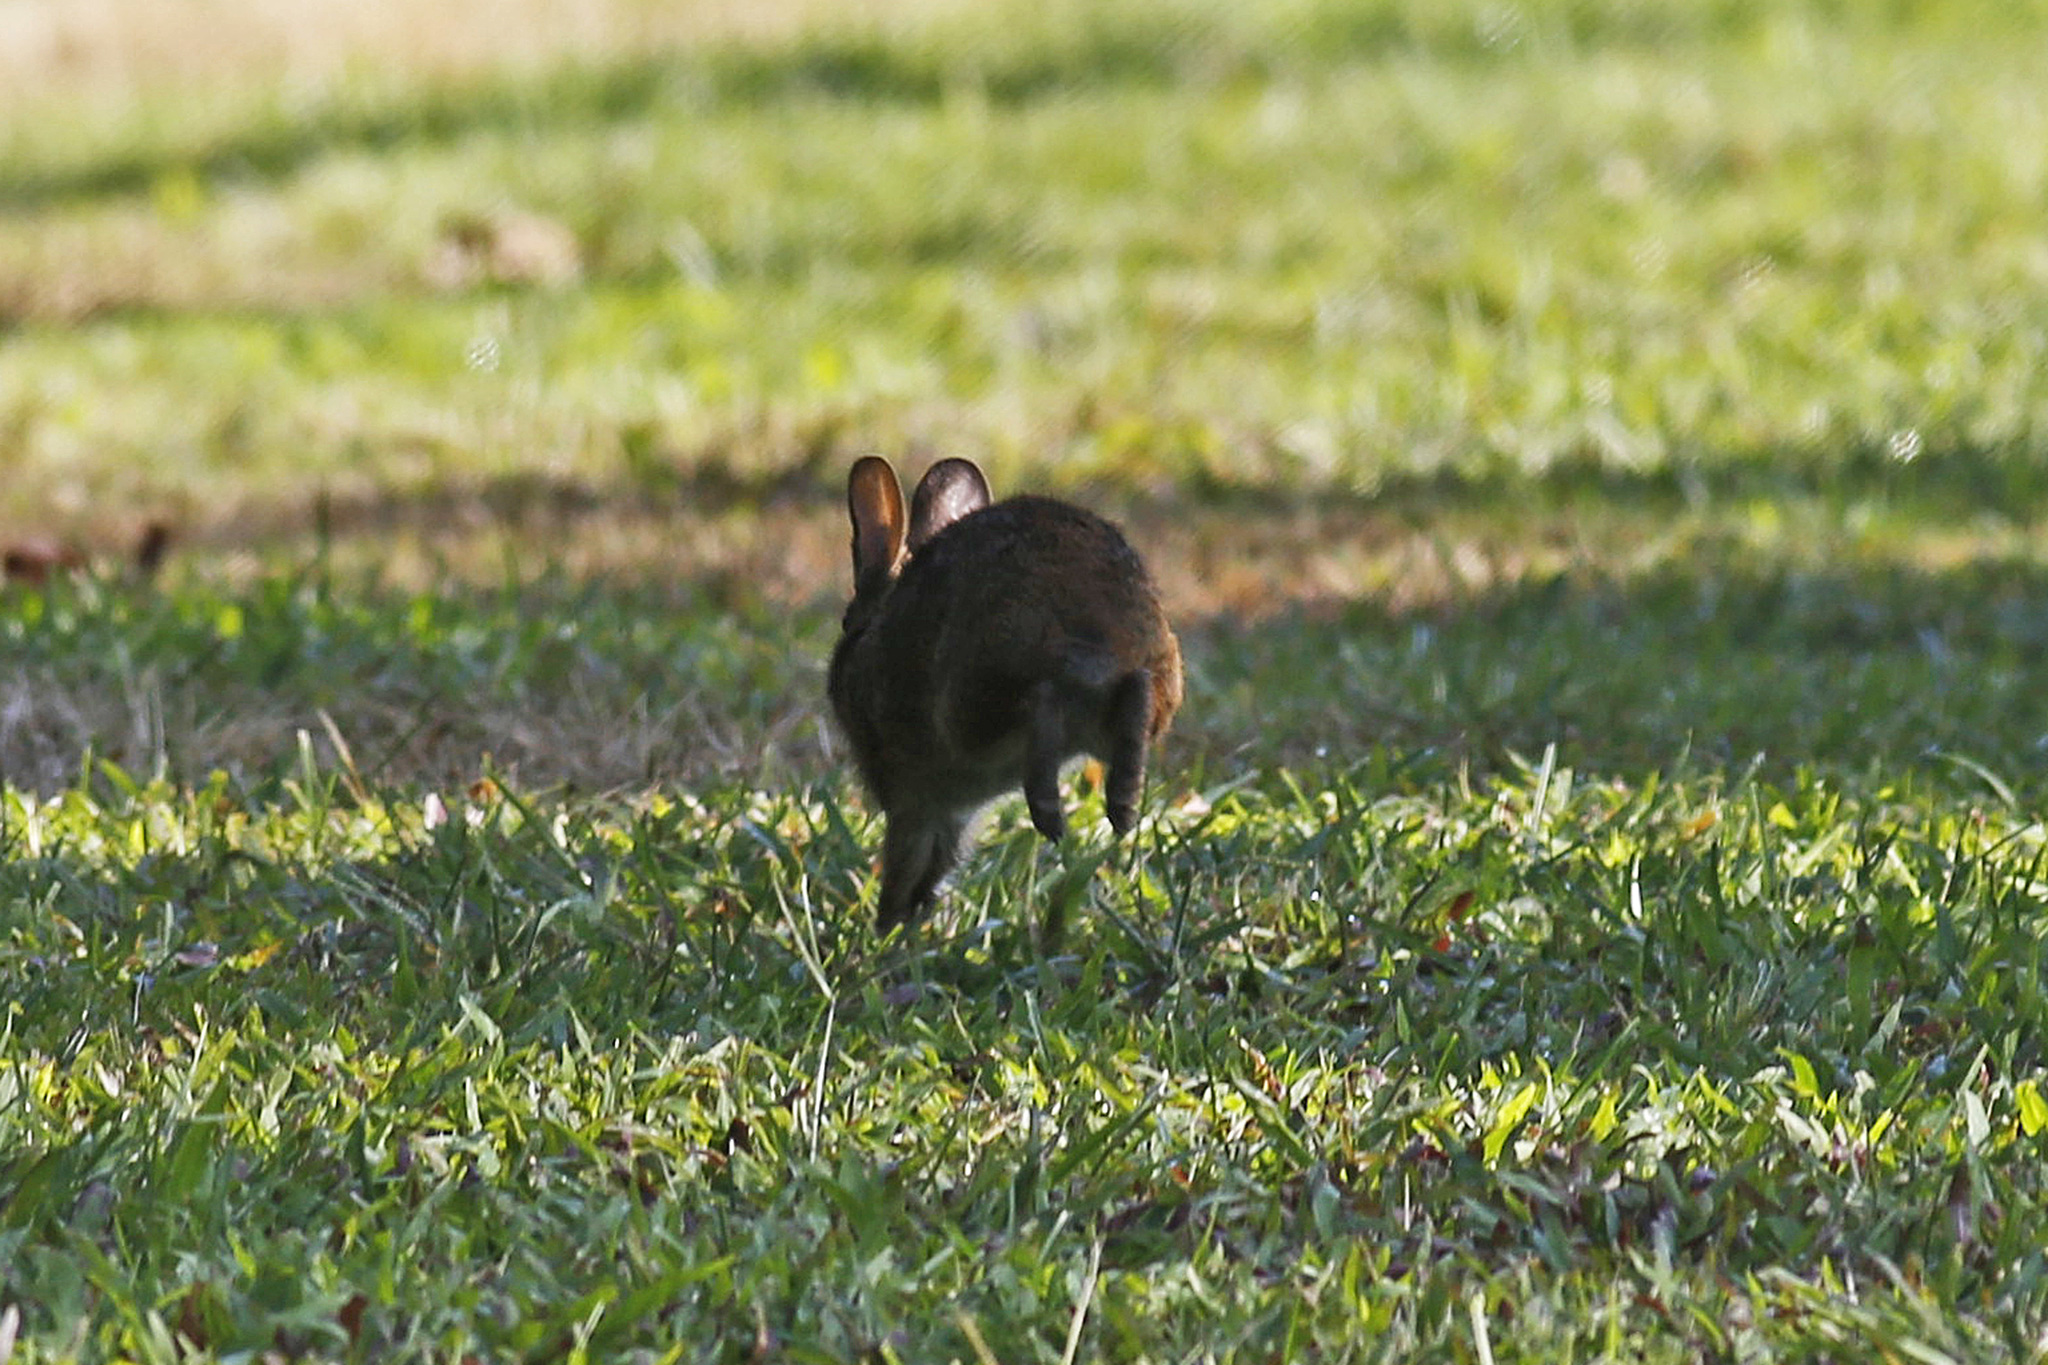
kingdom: Animalia
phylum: Chordata
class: Mammalia
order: Lagomorpha
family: Leporidae
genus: Sylvilagus
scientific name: Sylvilagus palustris
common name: Marsh rabbit
